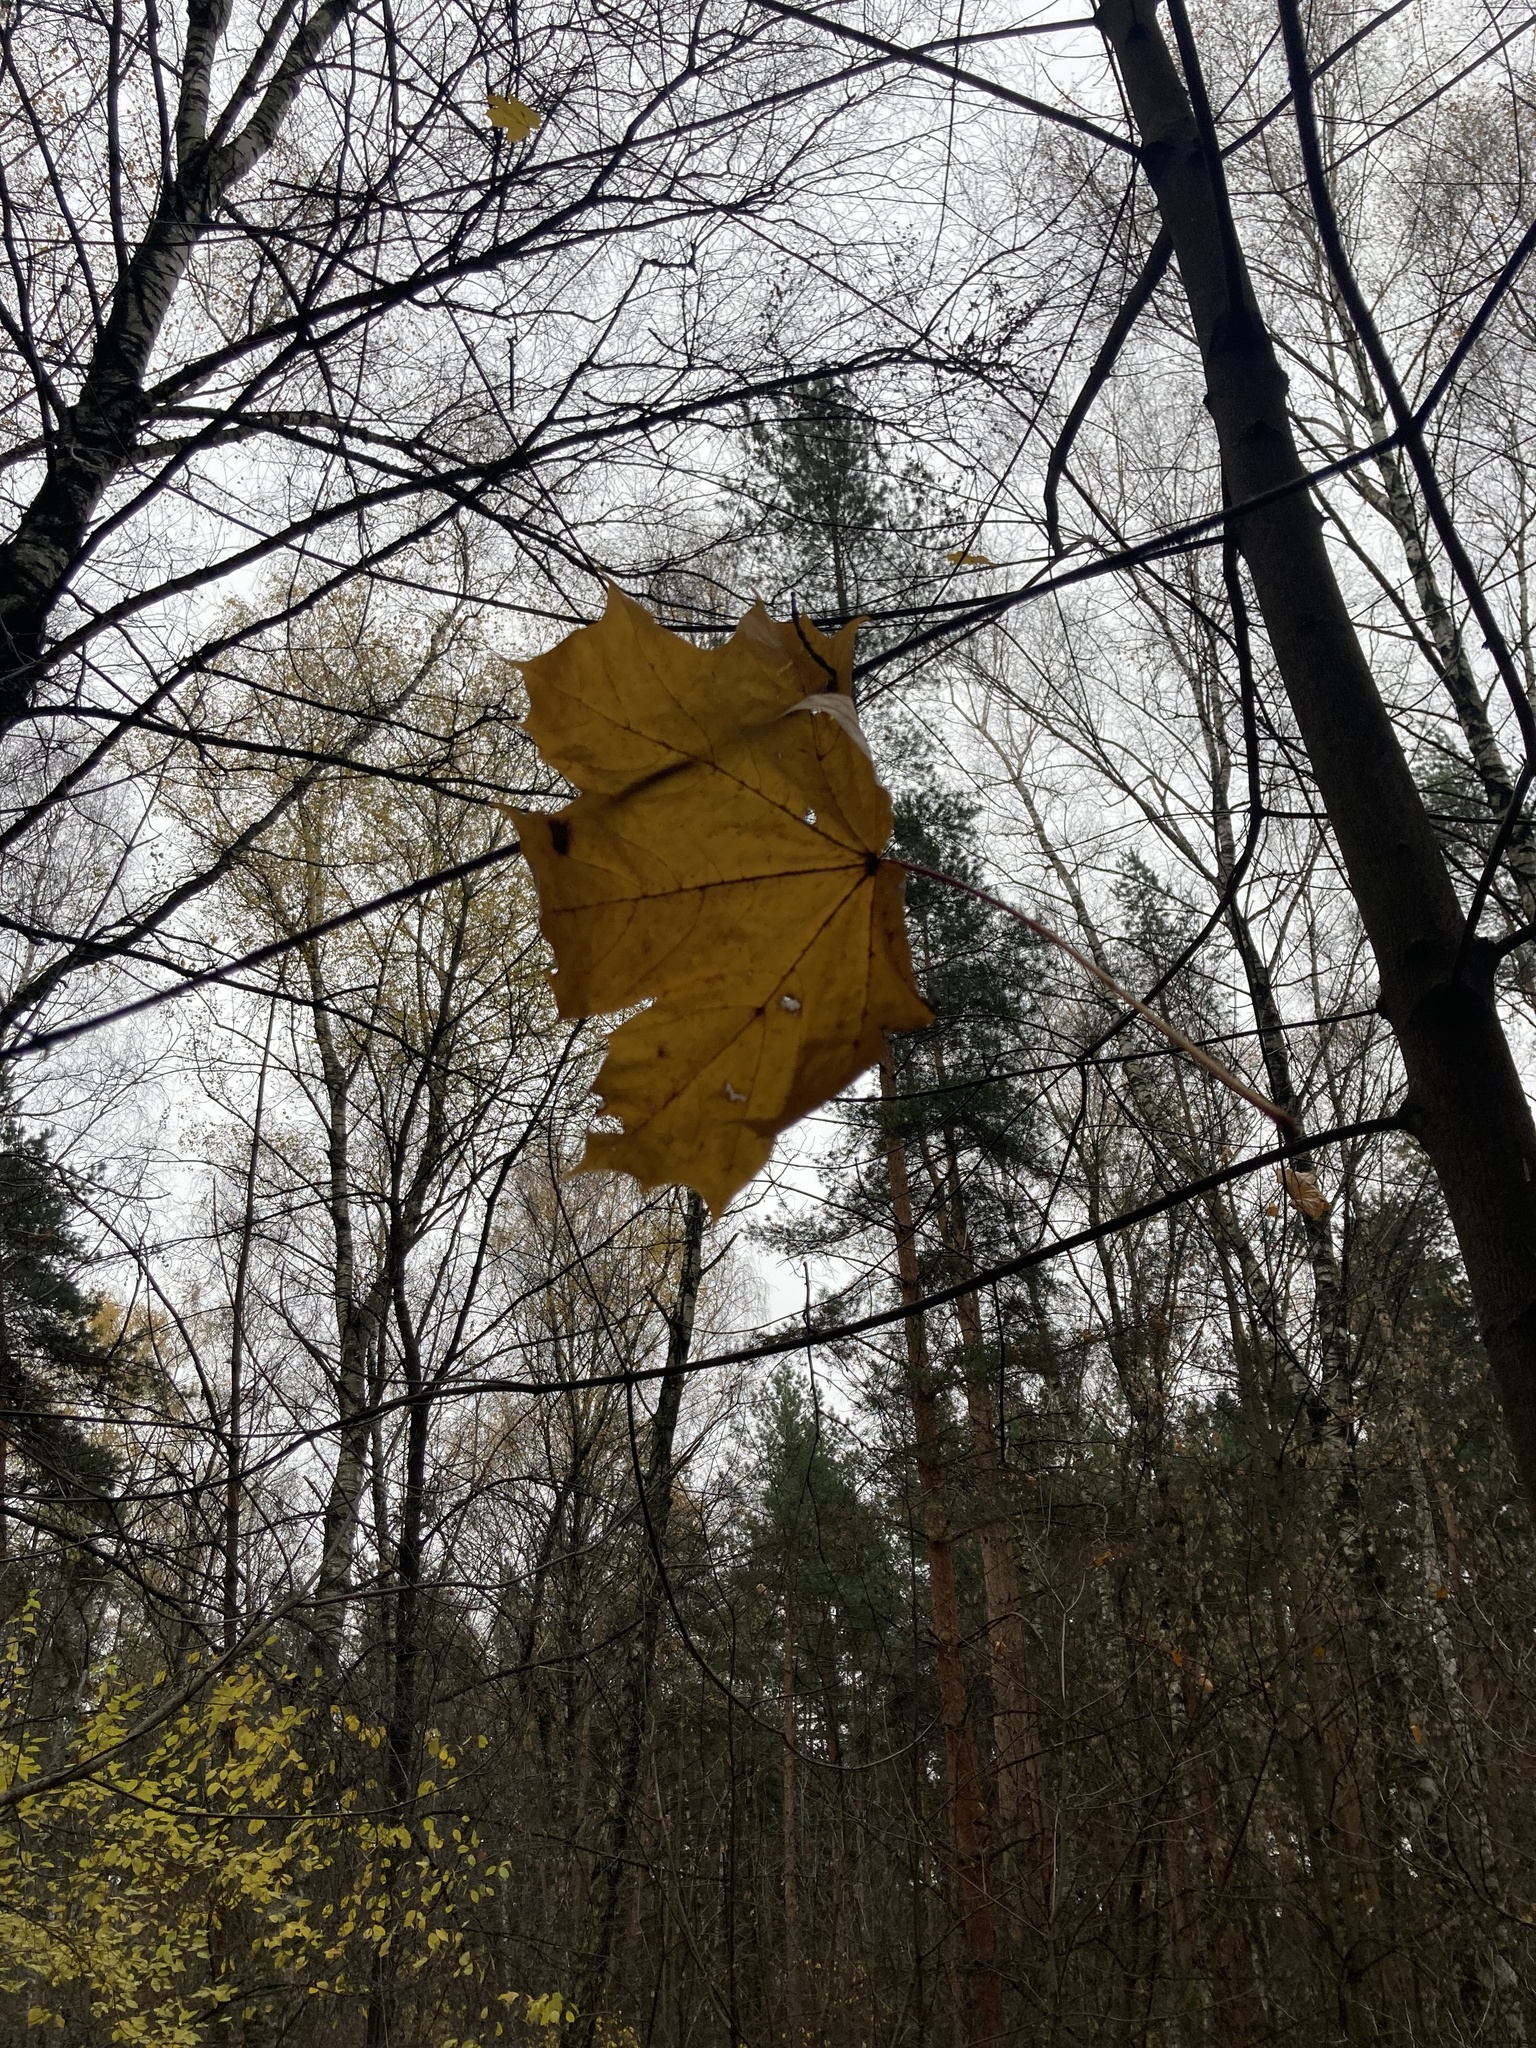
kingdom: Plantae
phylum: Tracheophyta
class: Magnoliopsida
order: Sapindales
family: Sapindaceae
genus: Acer
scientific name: Acer platanoides
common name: Norway maple
